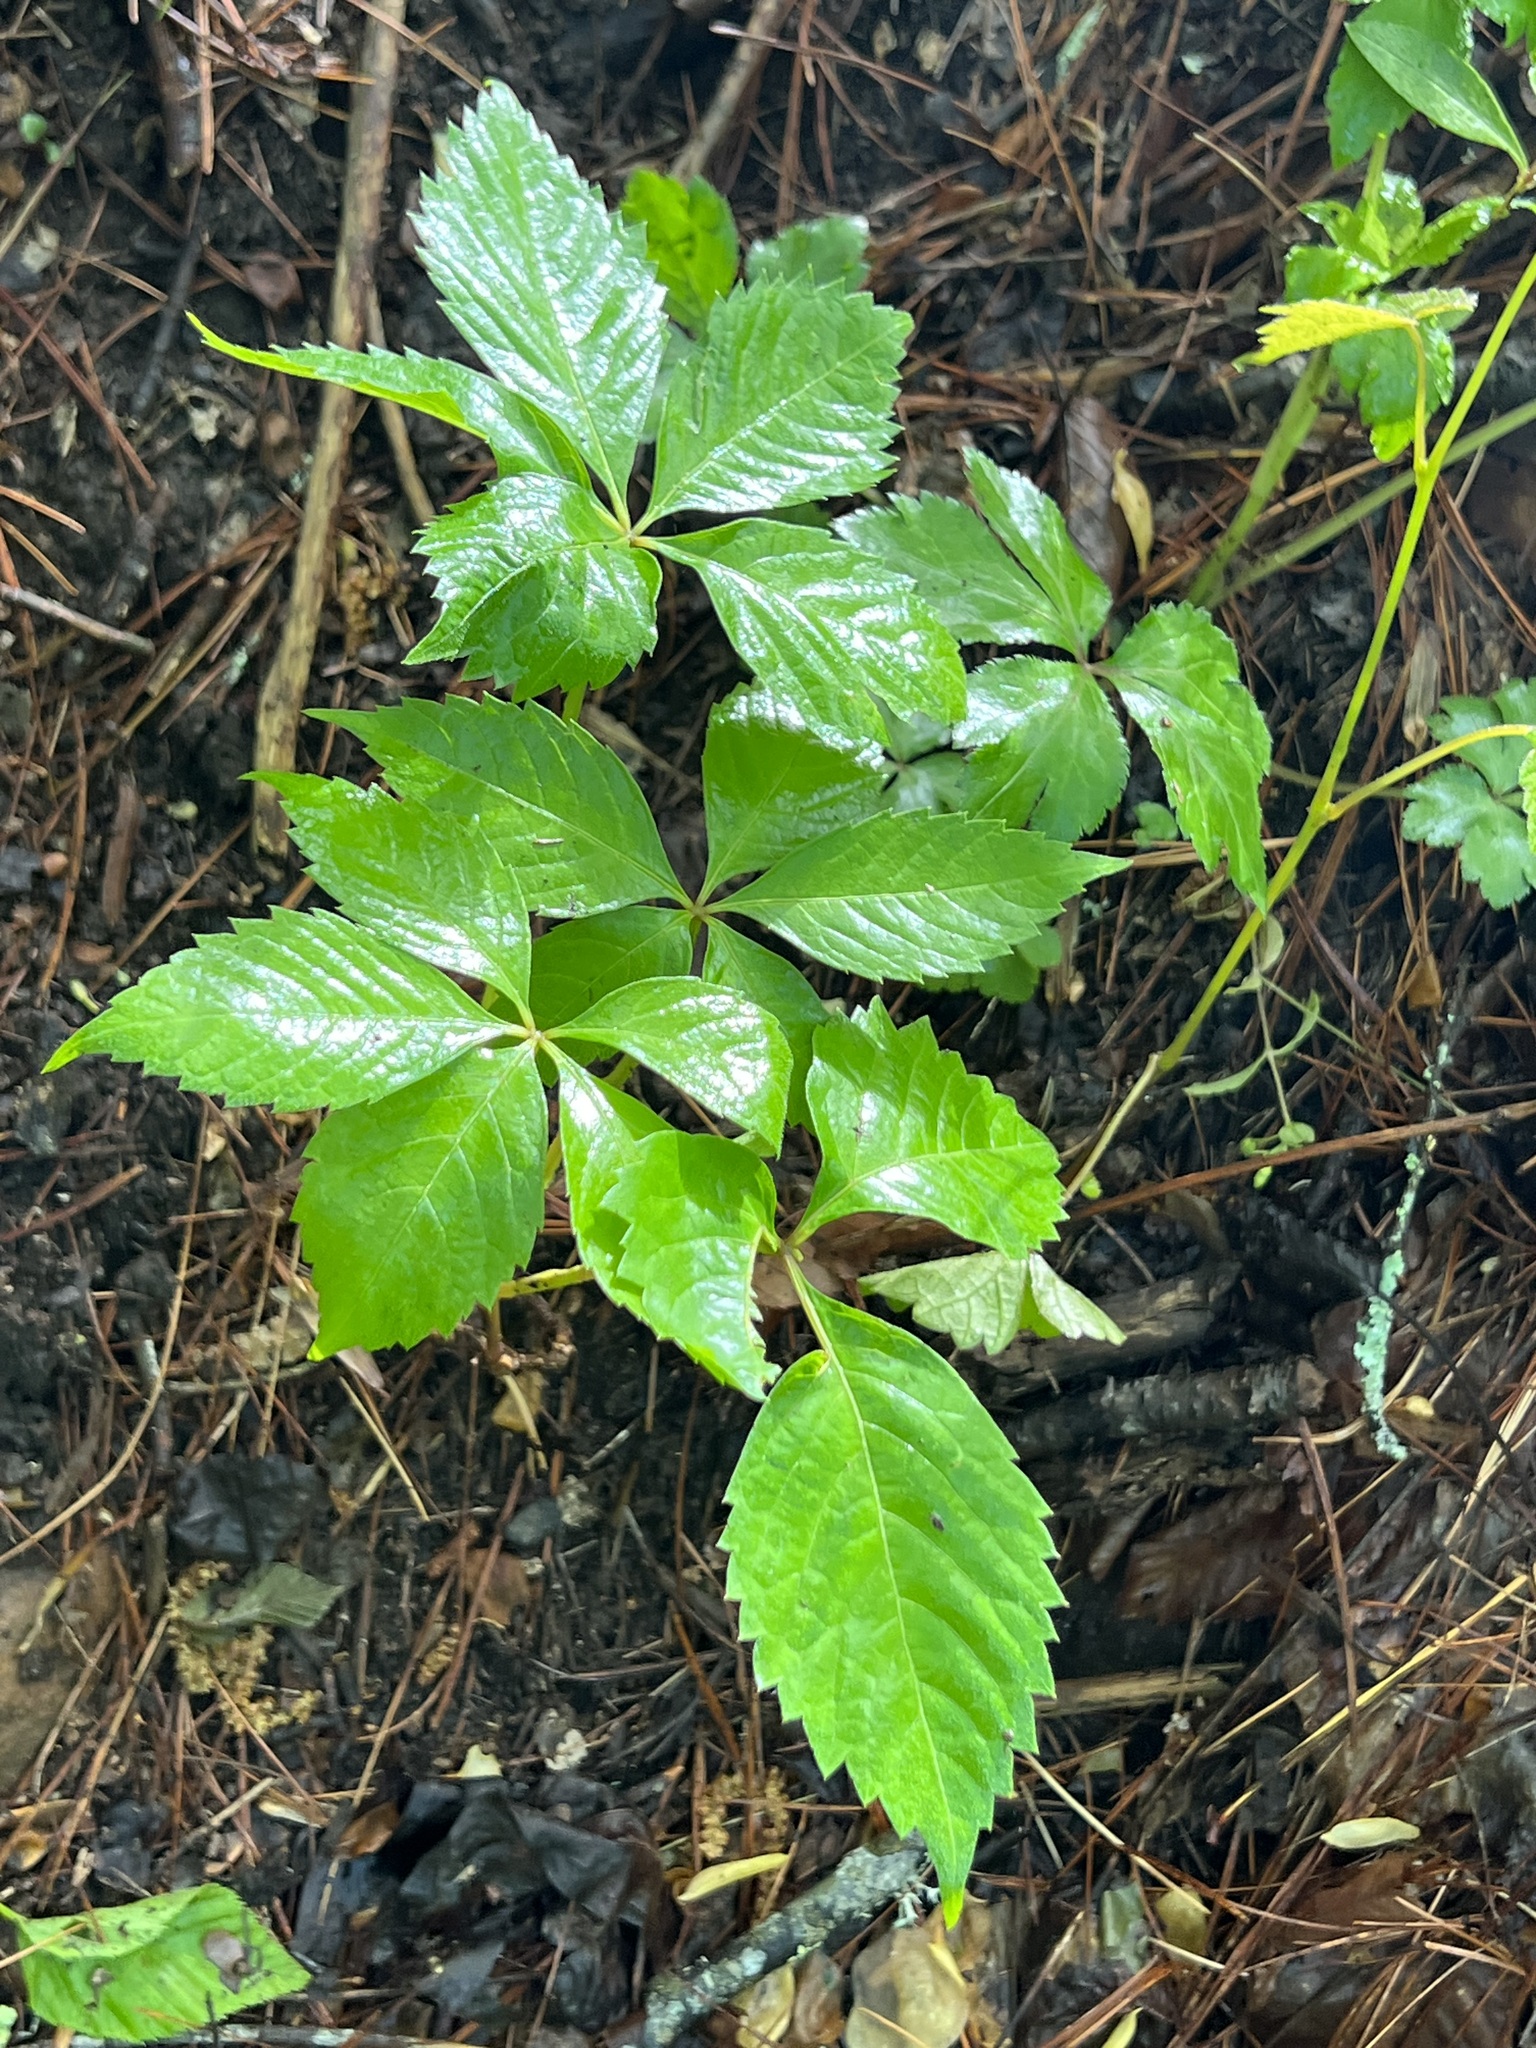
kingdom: Plantae
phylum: Tracheophyta
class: Magnoliopsida
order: Vitales
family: Vitaceae
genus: Parthenocissus
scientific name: Parthenocissus quinquefolia
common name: Virginia-creeper
